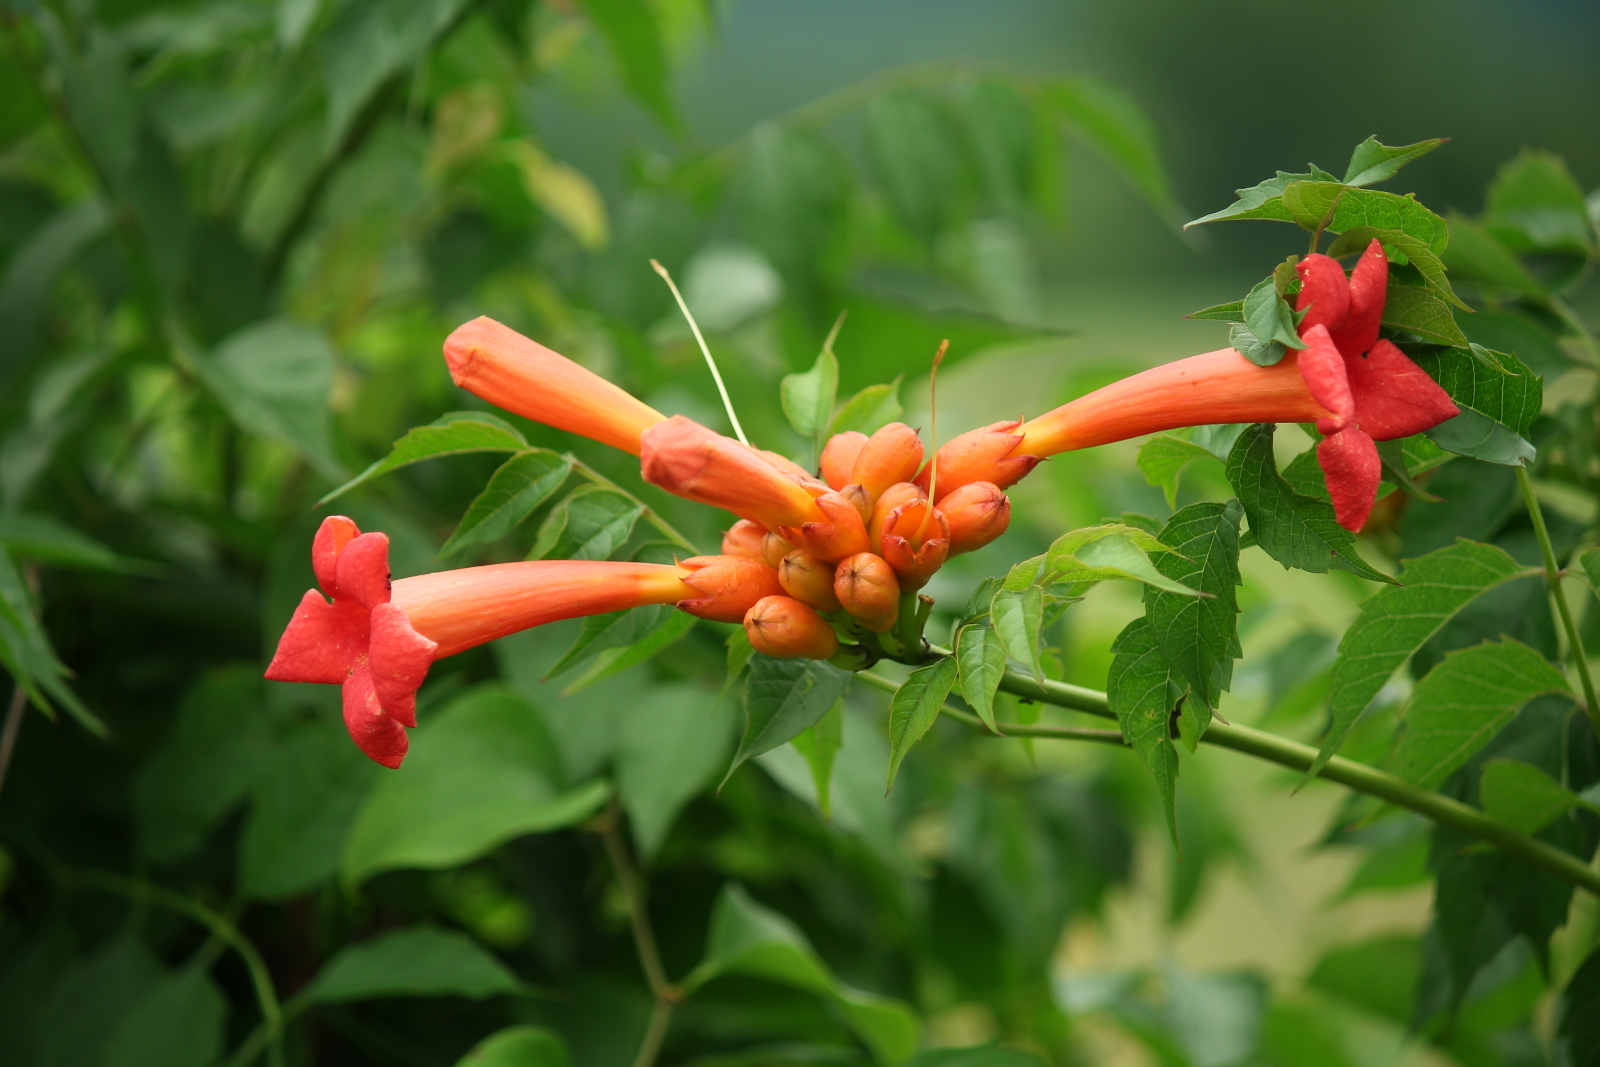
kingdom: Plantae
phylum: Tracheophyta
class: Magnoliopsida
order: Lamiales
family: Bignoniaceae
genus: Campsis
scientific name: Campsis radicans
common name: Trumpet-creeper
